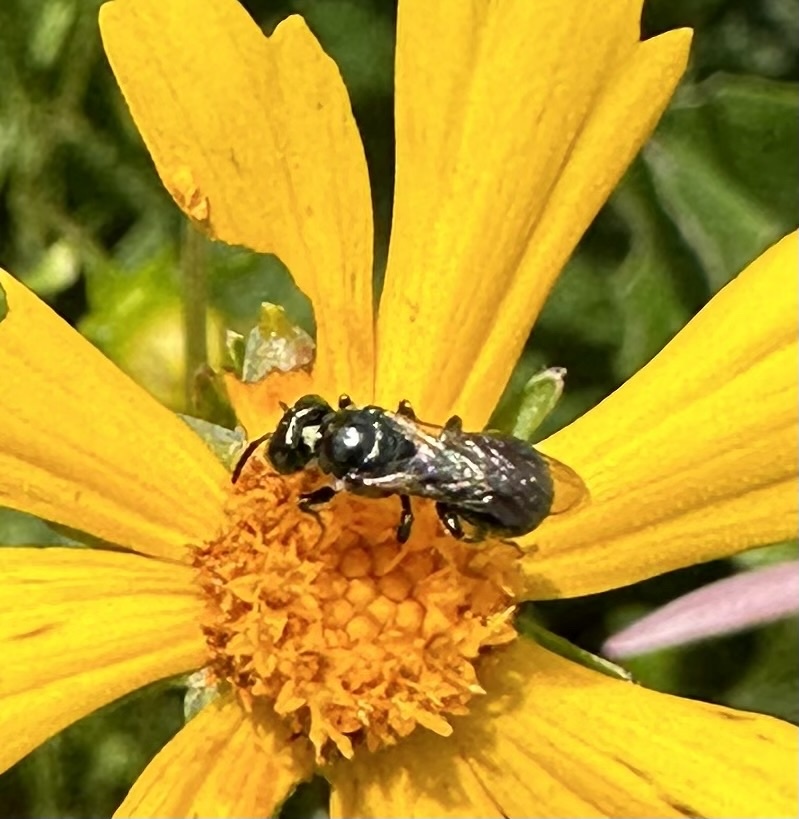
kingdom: Animalia
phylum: Arthropoda
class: Insecta
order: Hymenoptera
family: Apidae
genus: Zadontomerus
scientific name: Zadontomerus
